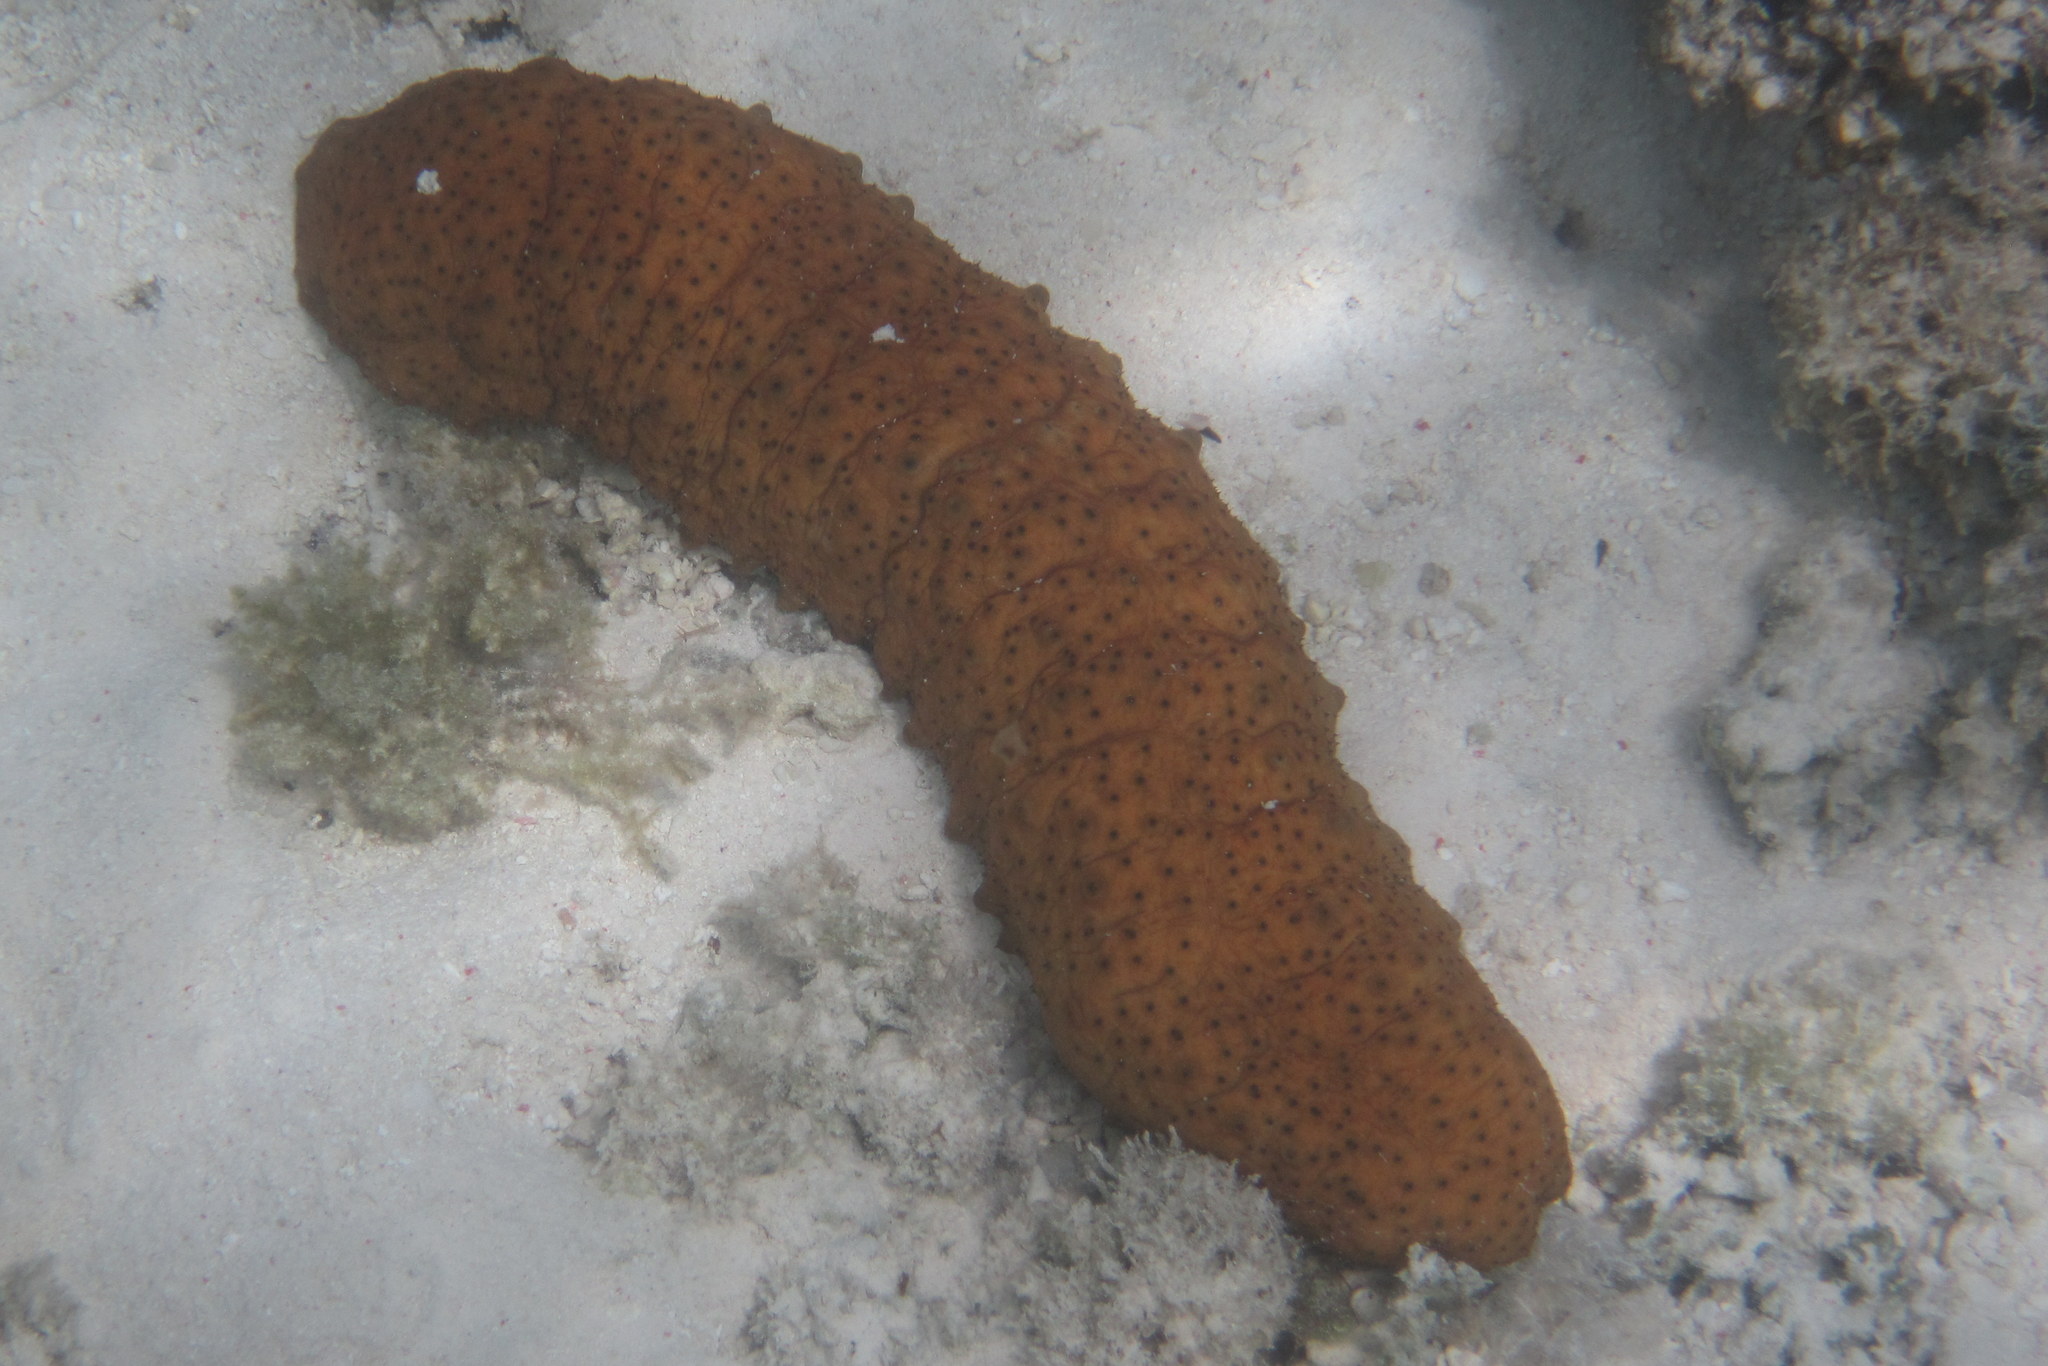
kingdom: Animalia
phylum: Echinodermata
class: Holothuroidea
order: Synallactida
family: Stichopodidae
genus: Stichopus
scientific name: Stichopus herrmanni
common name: Curryfish
